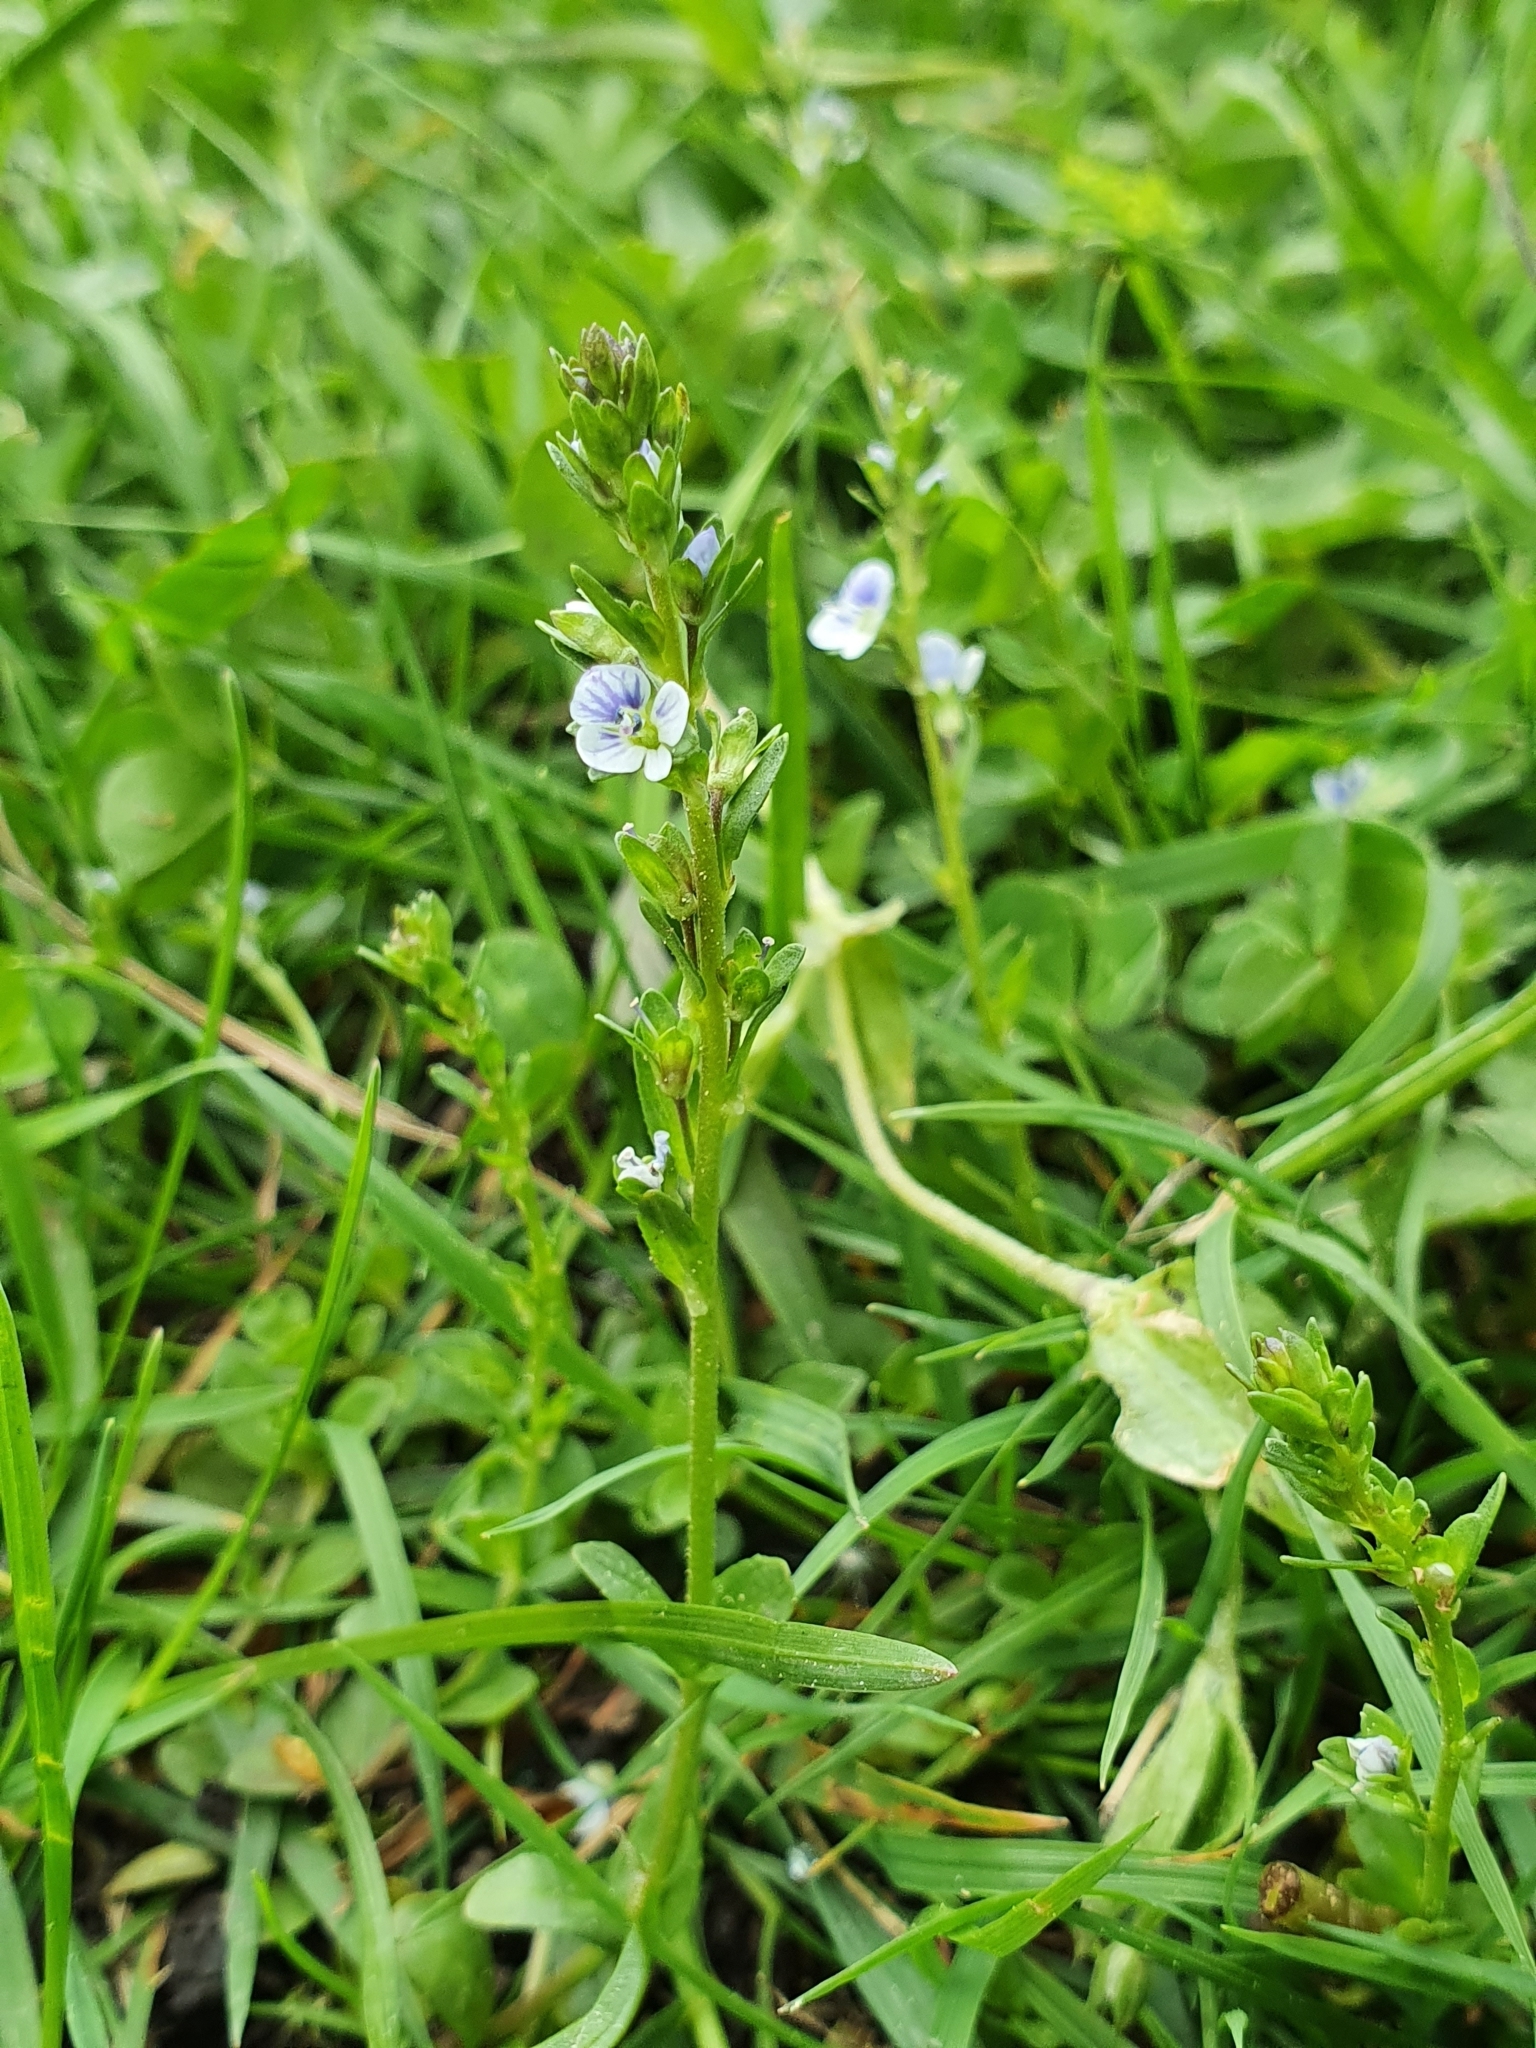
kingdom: Plantae
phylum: Tracheophyta
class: Magnoliopsida
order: Lamiales
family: Plantaginaceae
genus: Veronica
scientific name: Veronica serpyllifolia
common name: Thyme-leaved speedwell
